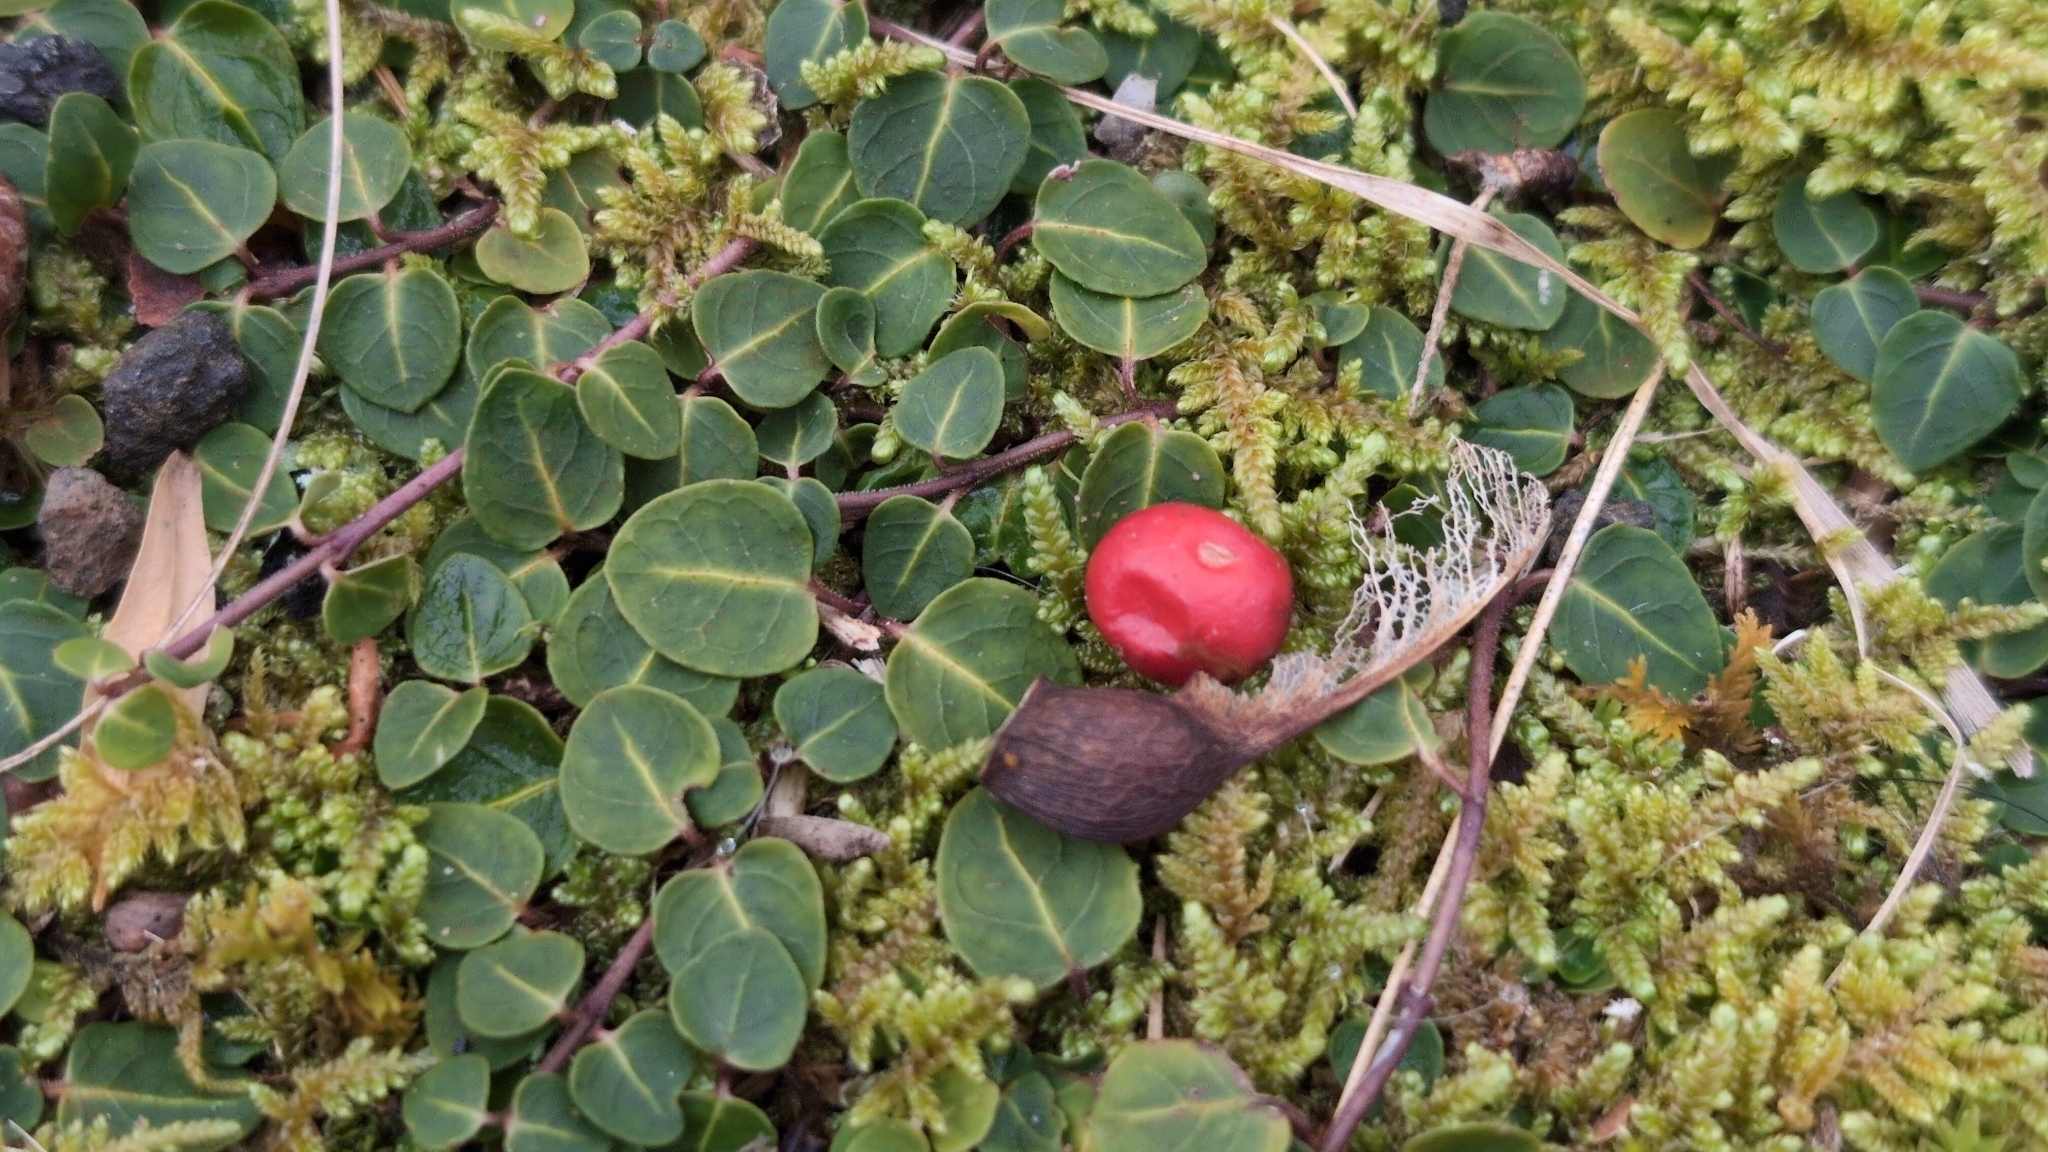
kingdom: Plantae
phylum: Tracheophyta
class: Magnoliopsida
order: Gentianales
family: Rubiaceae
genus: Mitchella
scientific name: Mitchella repens
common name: Partridge-berry
